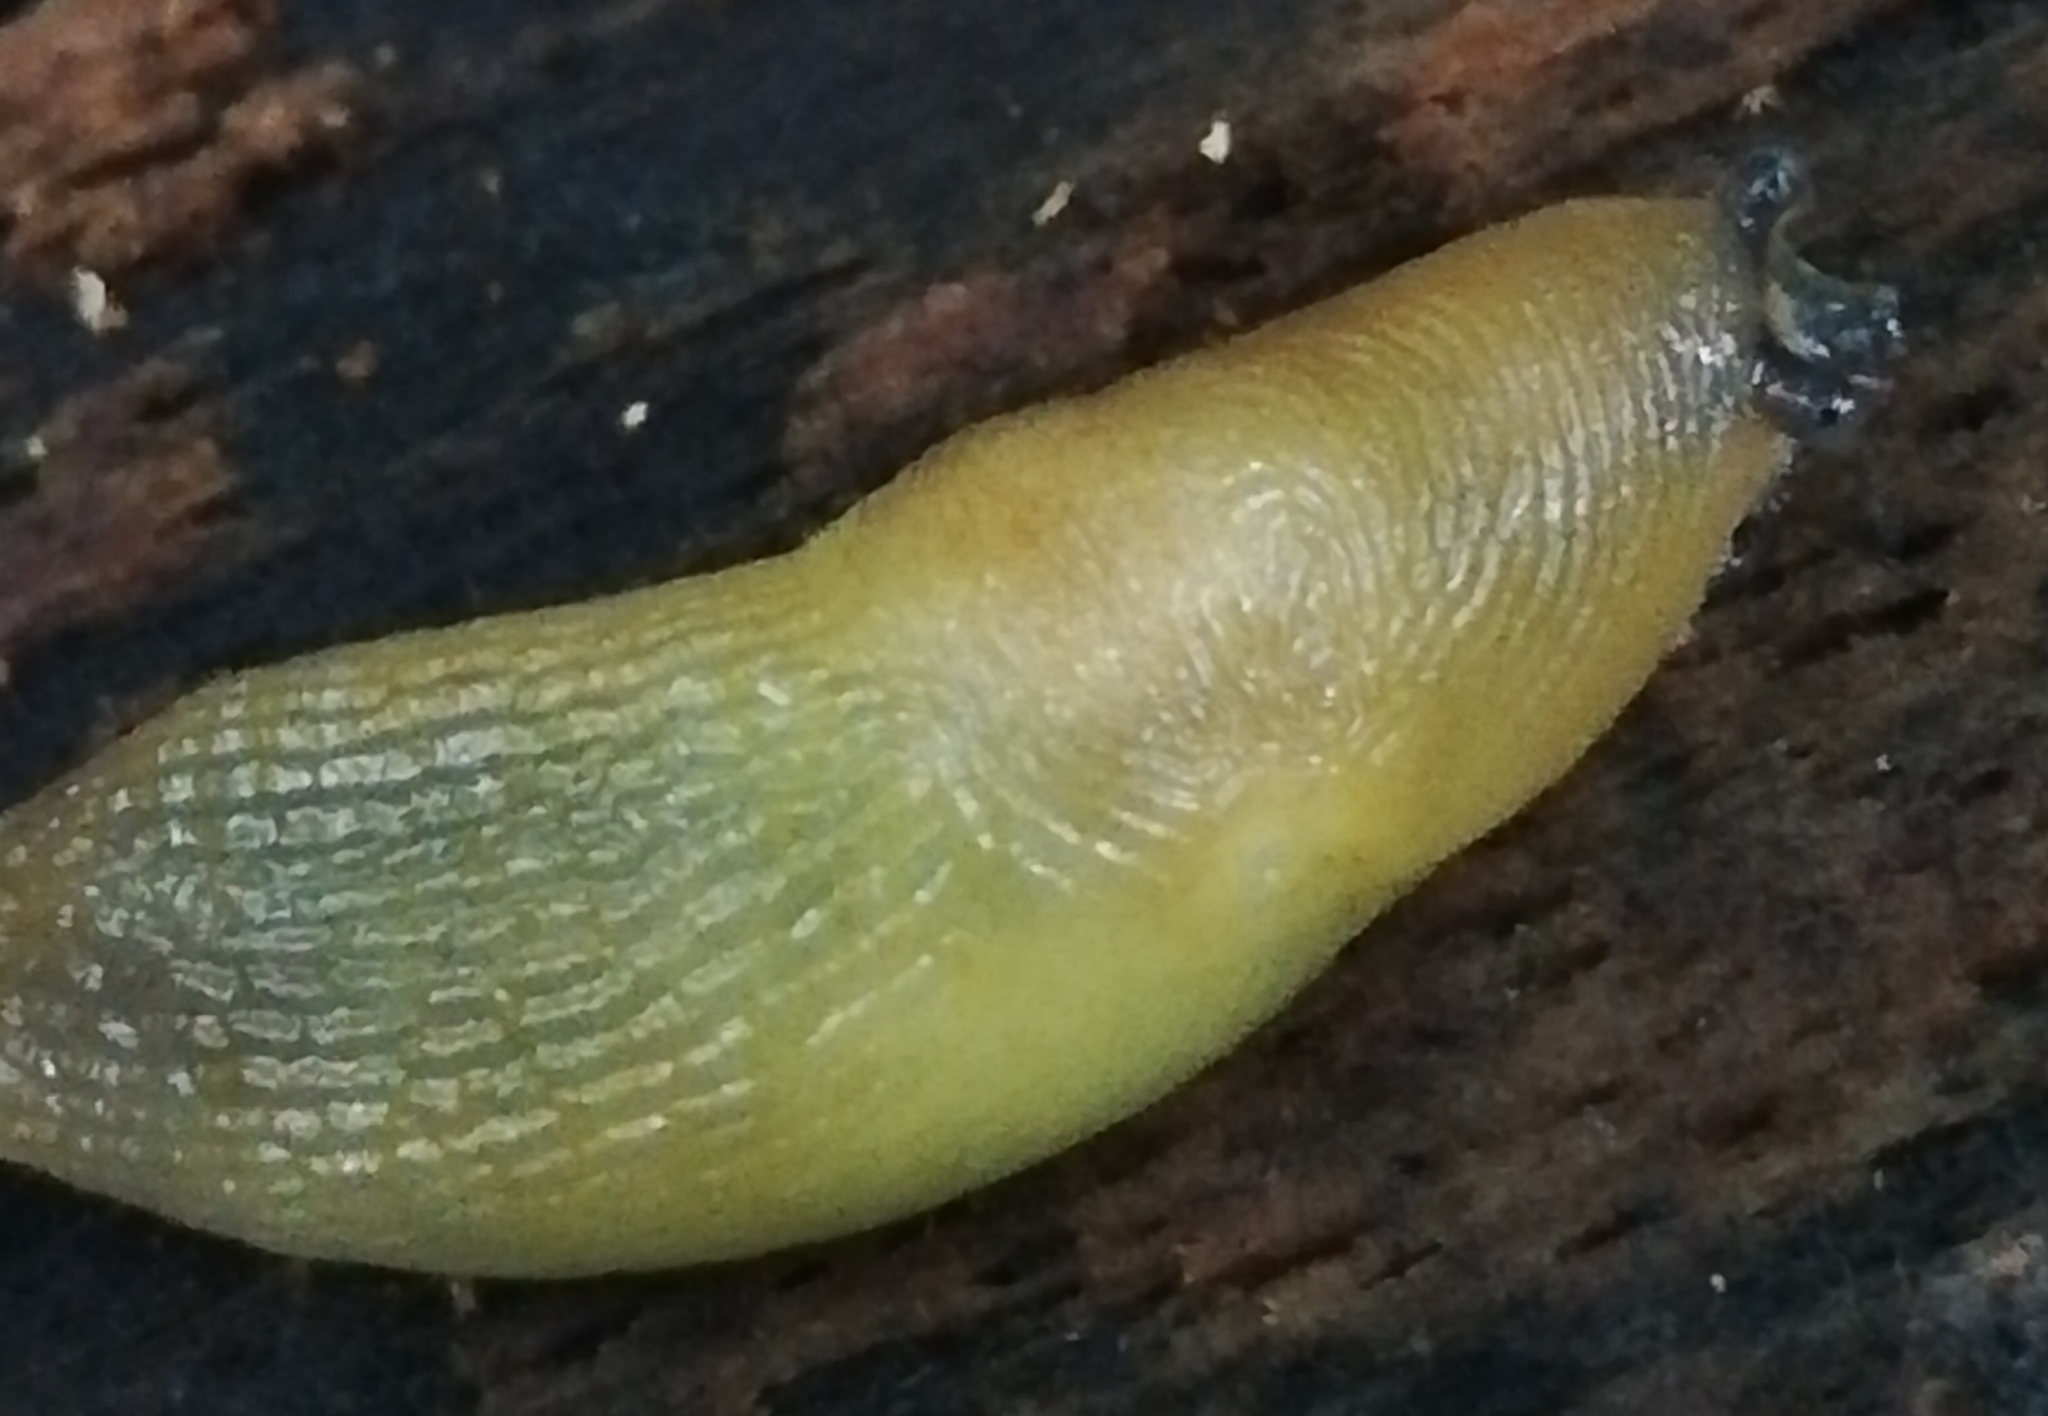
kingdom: Animalia
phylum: Mollusca
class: Gastropoda
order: Stylommatophora
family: Limacidae
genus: Malacolimax
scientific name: Malacolimax tenellus
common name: Lemon slug
